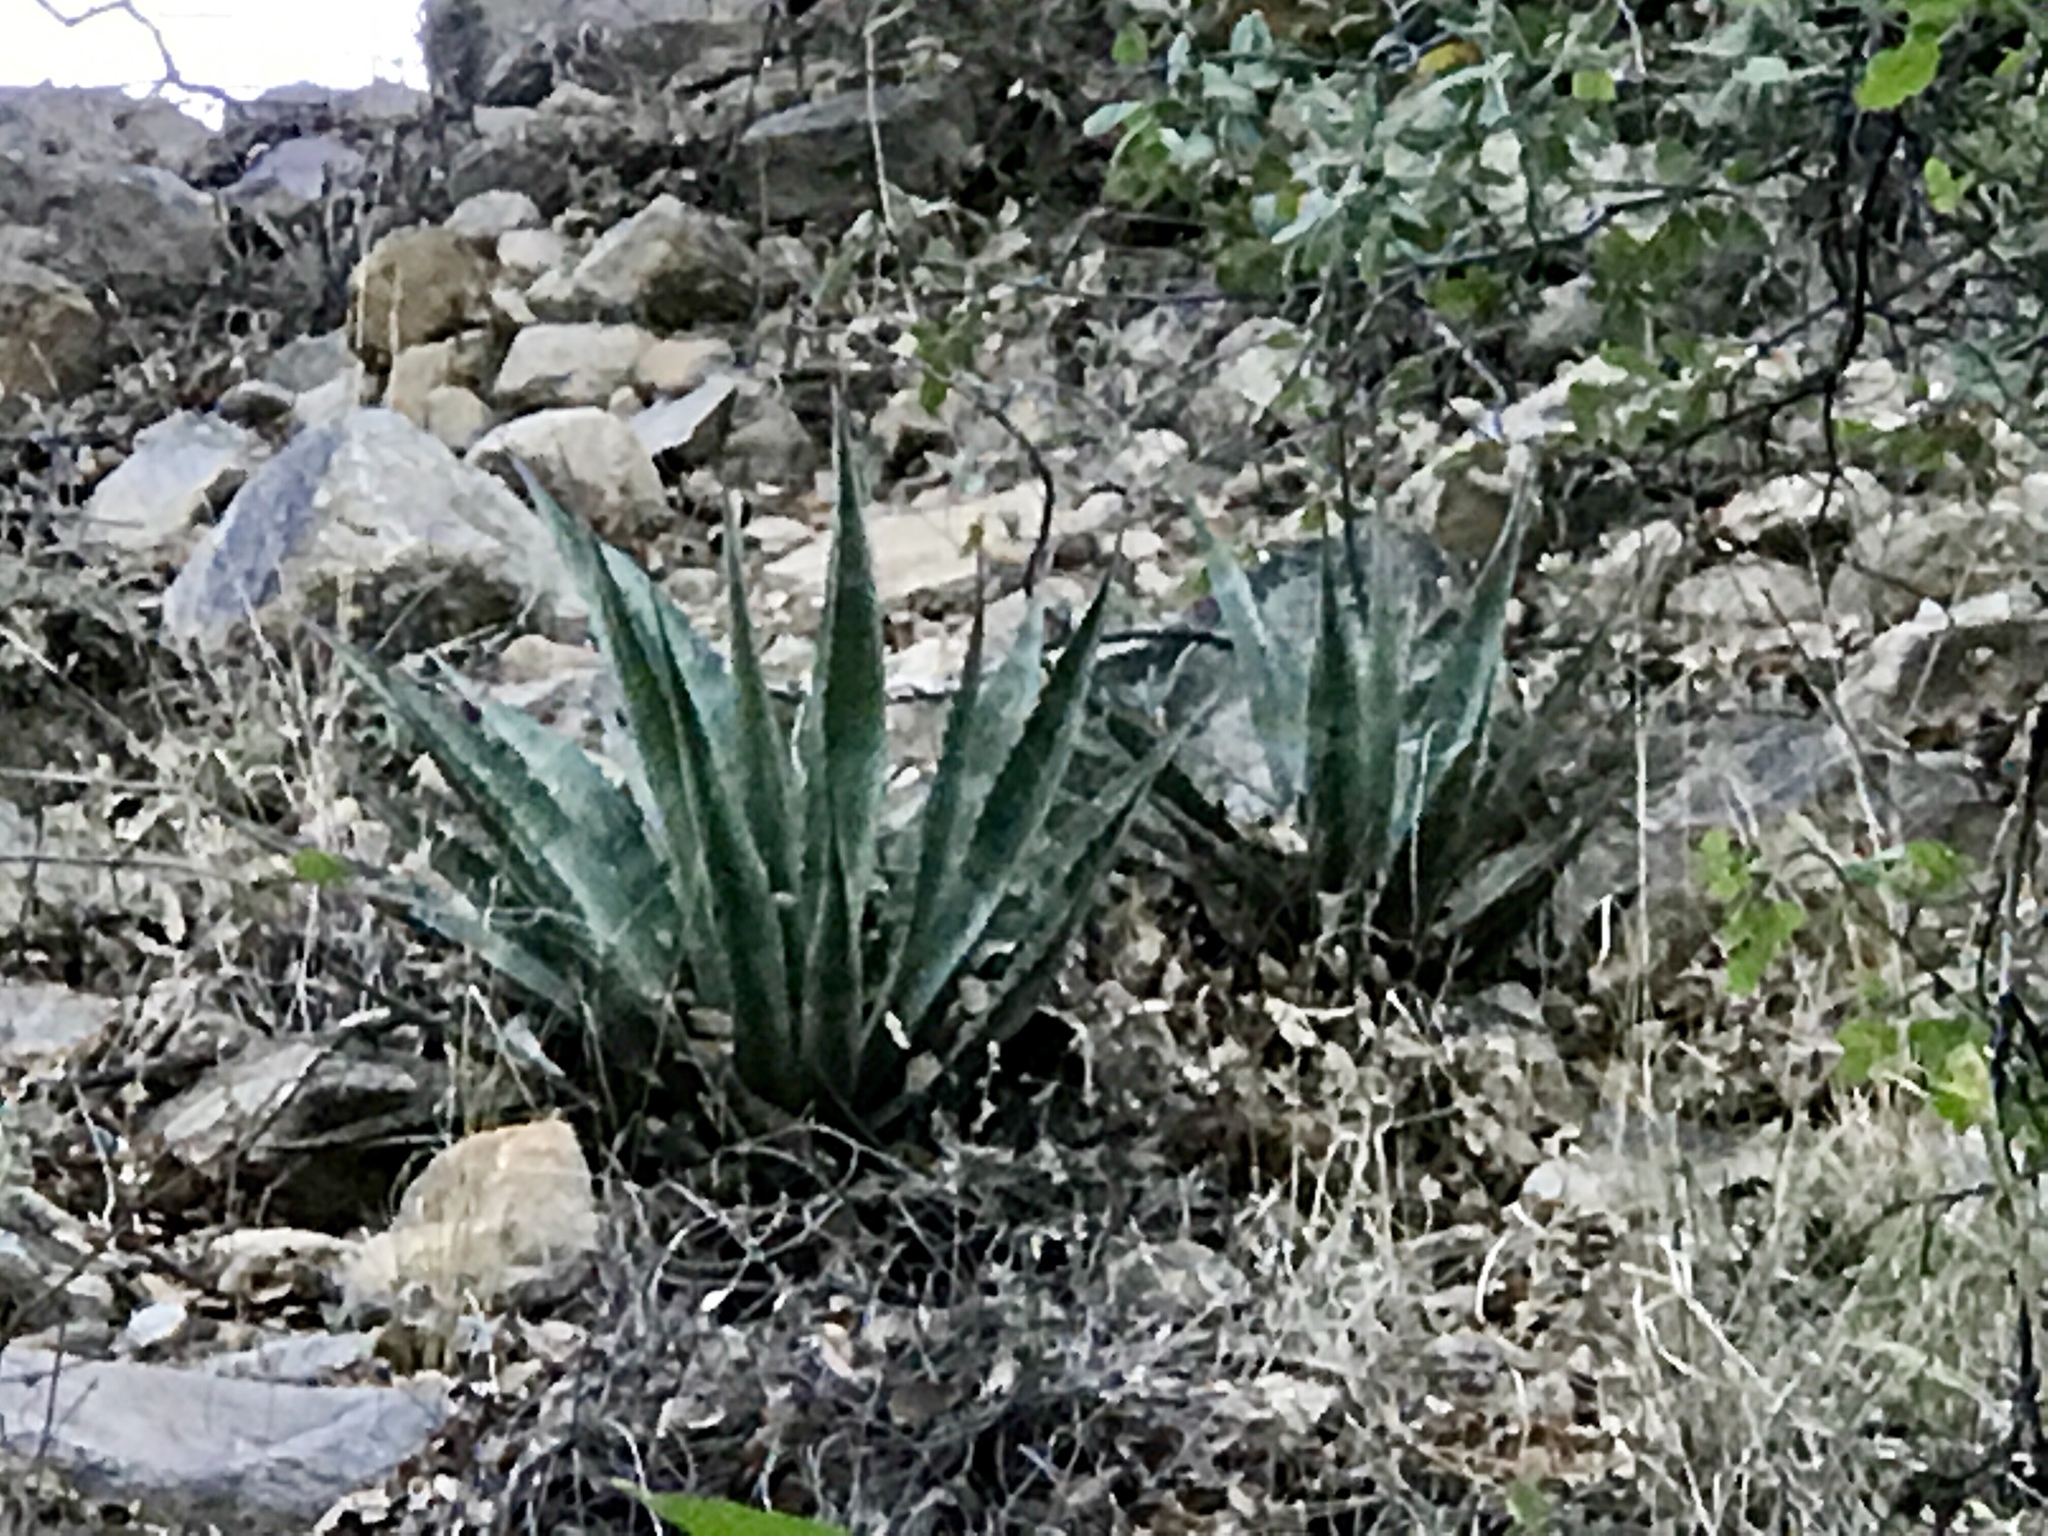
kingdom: Plantae
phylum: Tracheophyta
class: Liliopsida
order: Asparagales
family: Asparagaceae
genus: Agave
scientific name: Agave palmeri
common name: Palmer agave
